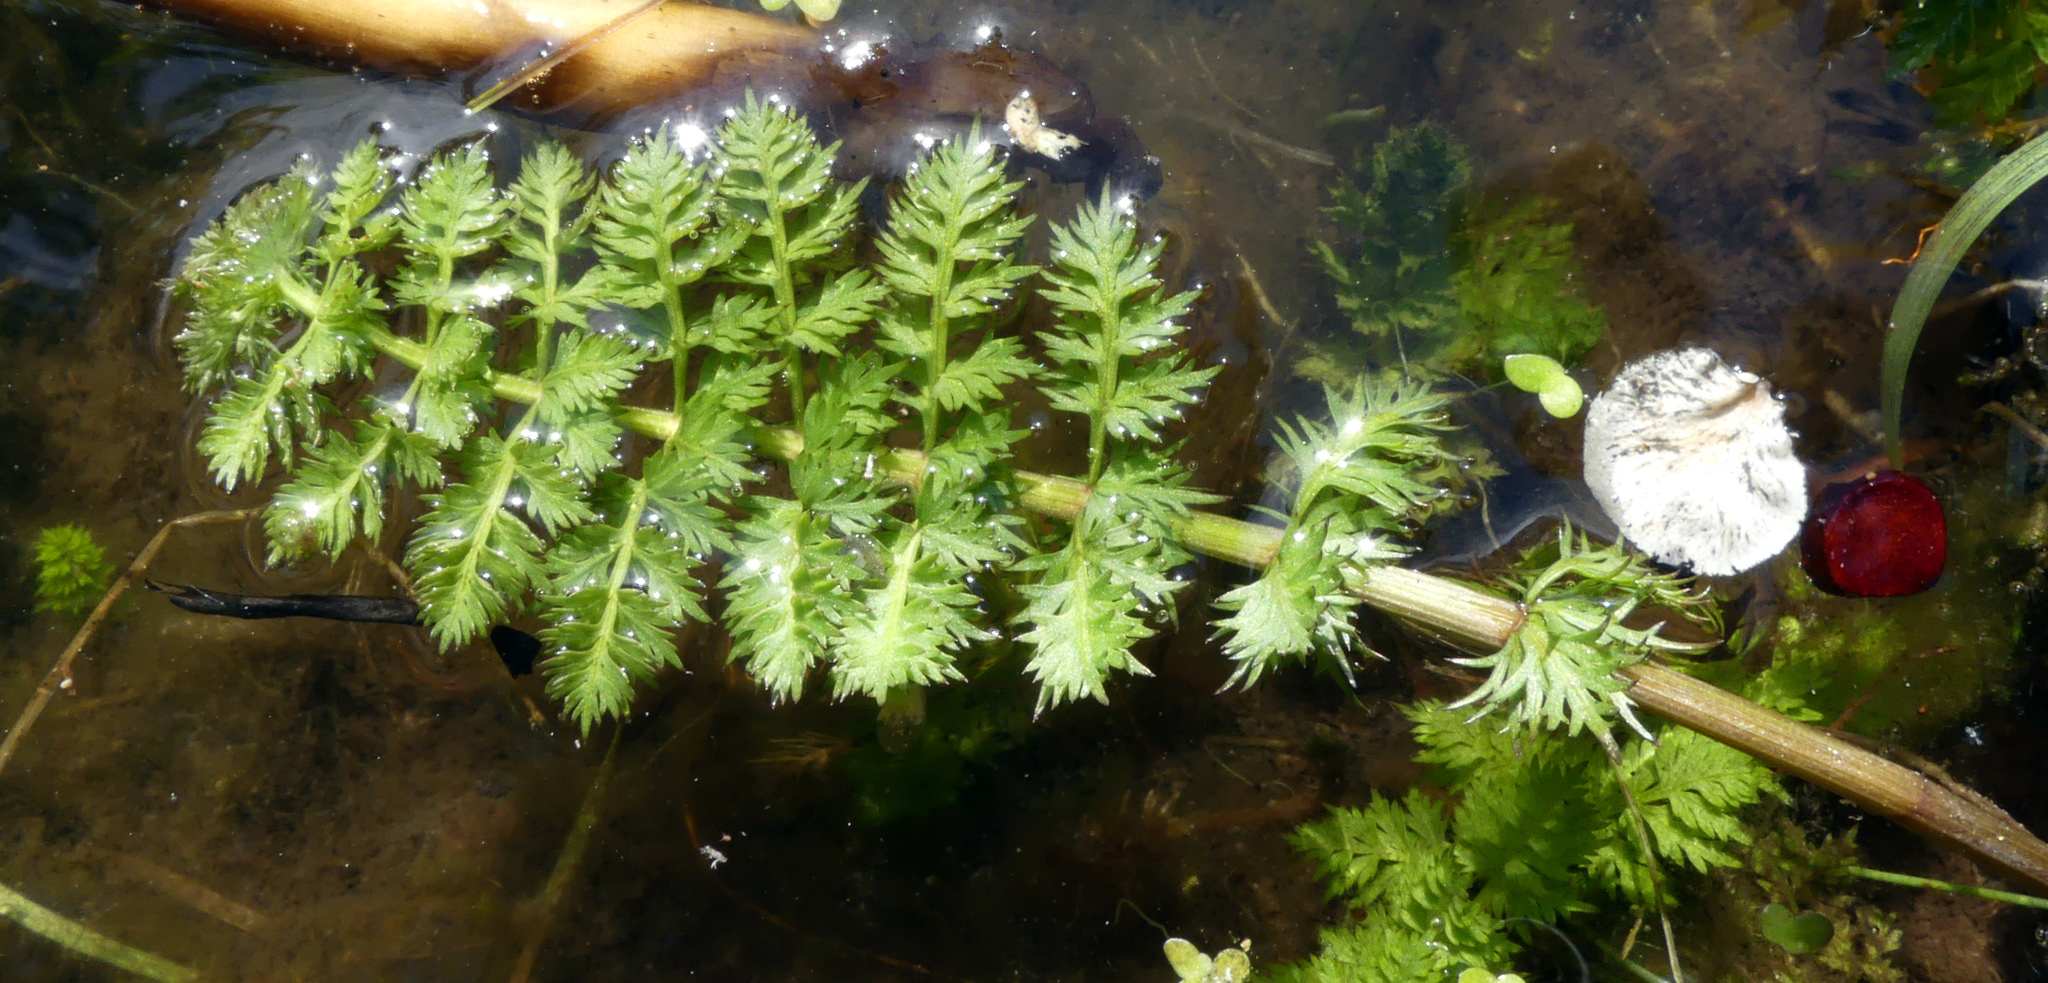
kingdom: Plantae
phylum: Tracheophyta
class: Magnoliopsida
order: Apiales
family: Apiaceae
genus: Sium
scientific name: Sium latifolium
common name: Greater water-parsnip
